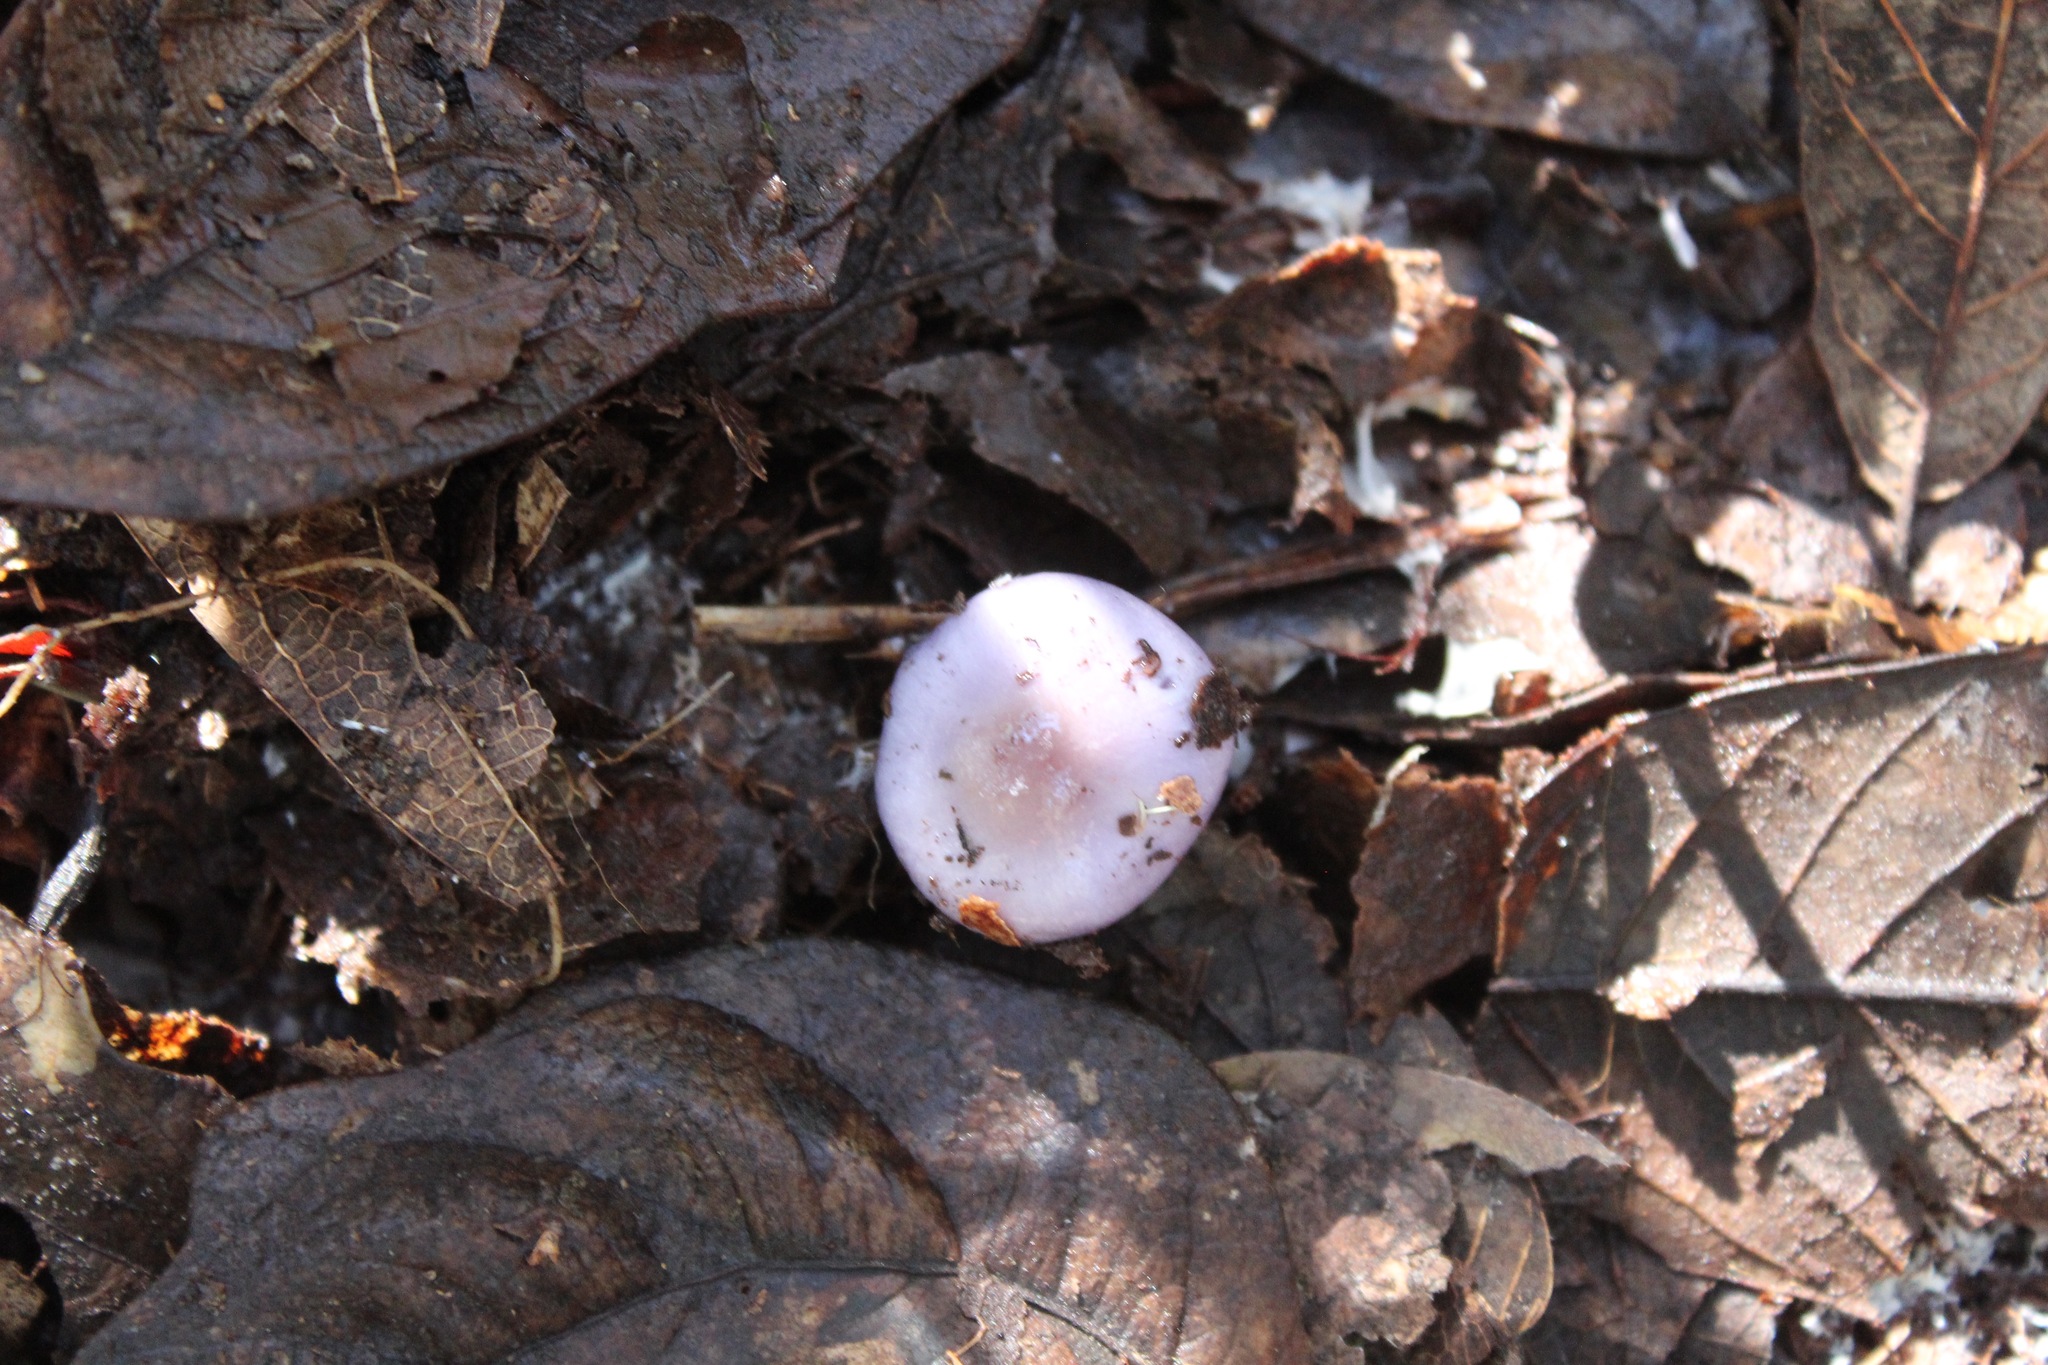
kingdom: Fungi
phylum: Basidiomycota
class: Agaricomycetes
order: Agaricales
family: Cortinariaceae
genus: Cortinarius
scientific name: Cortinarius iodes
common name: Viscid violet cort
